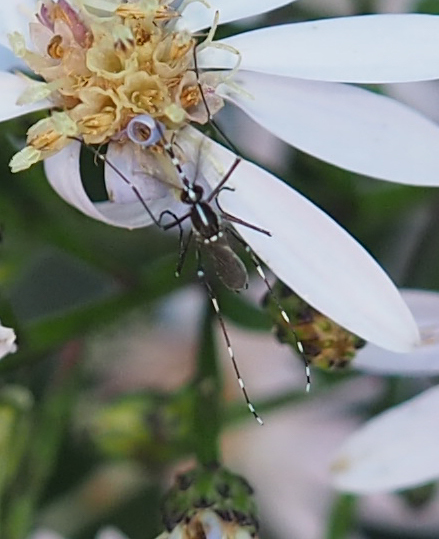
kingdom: Animalia
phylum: Arthropoda
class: Insecta
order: Diptera
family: Culicidae
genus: Aedes
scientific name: Aedes albopictus
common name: Tiger mosquito
